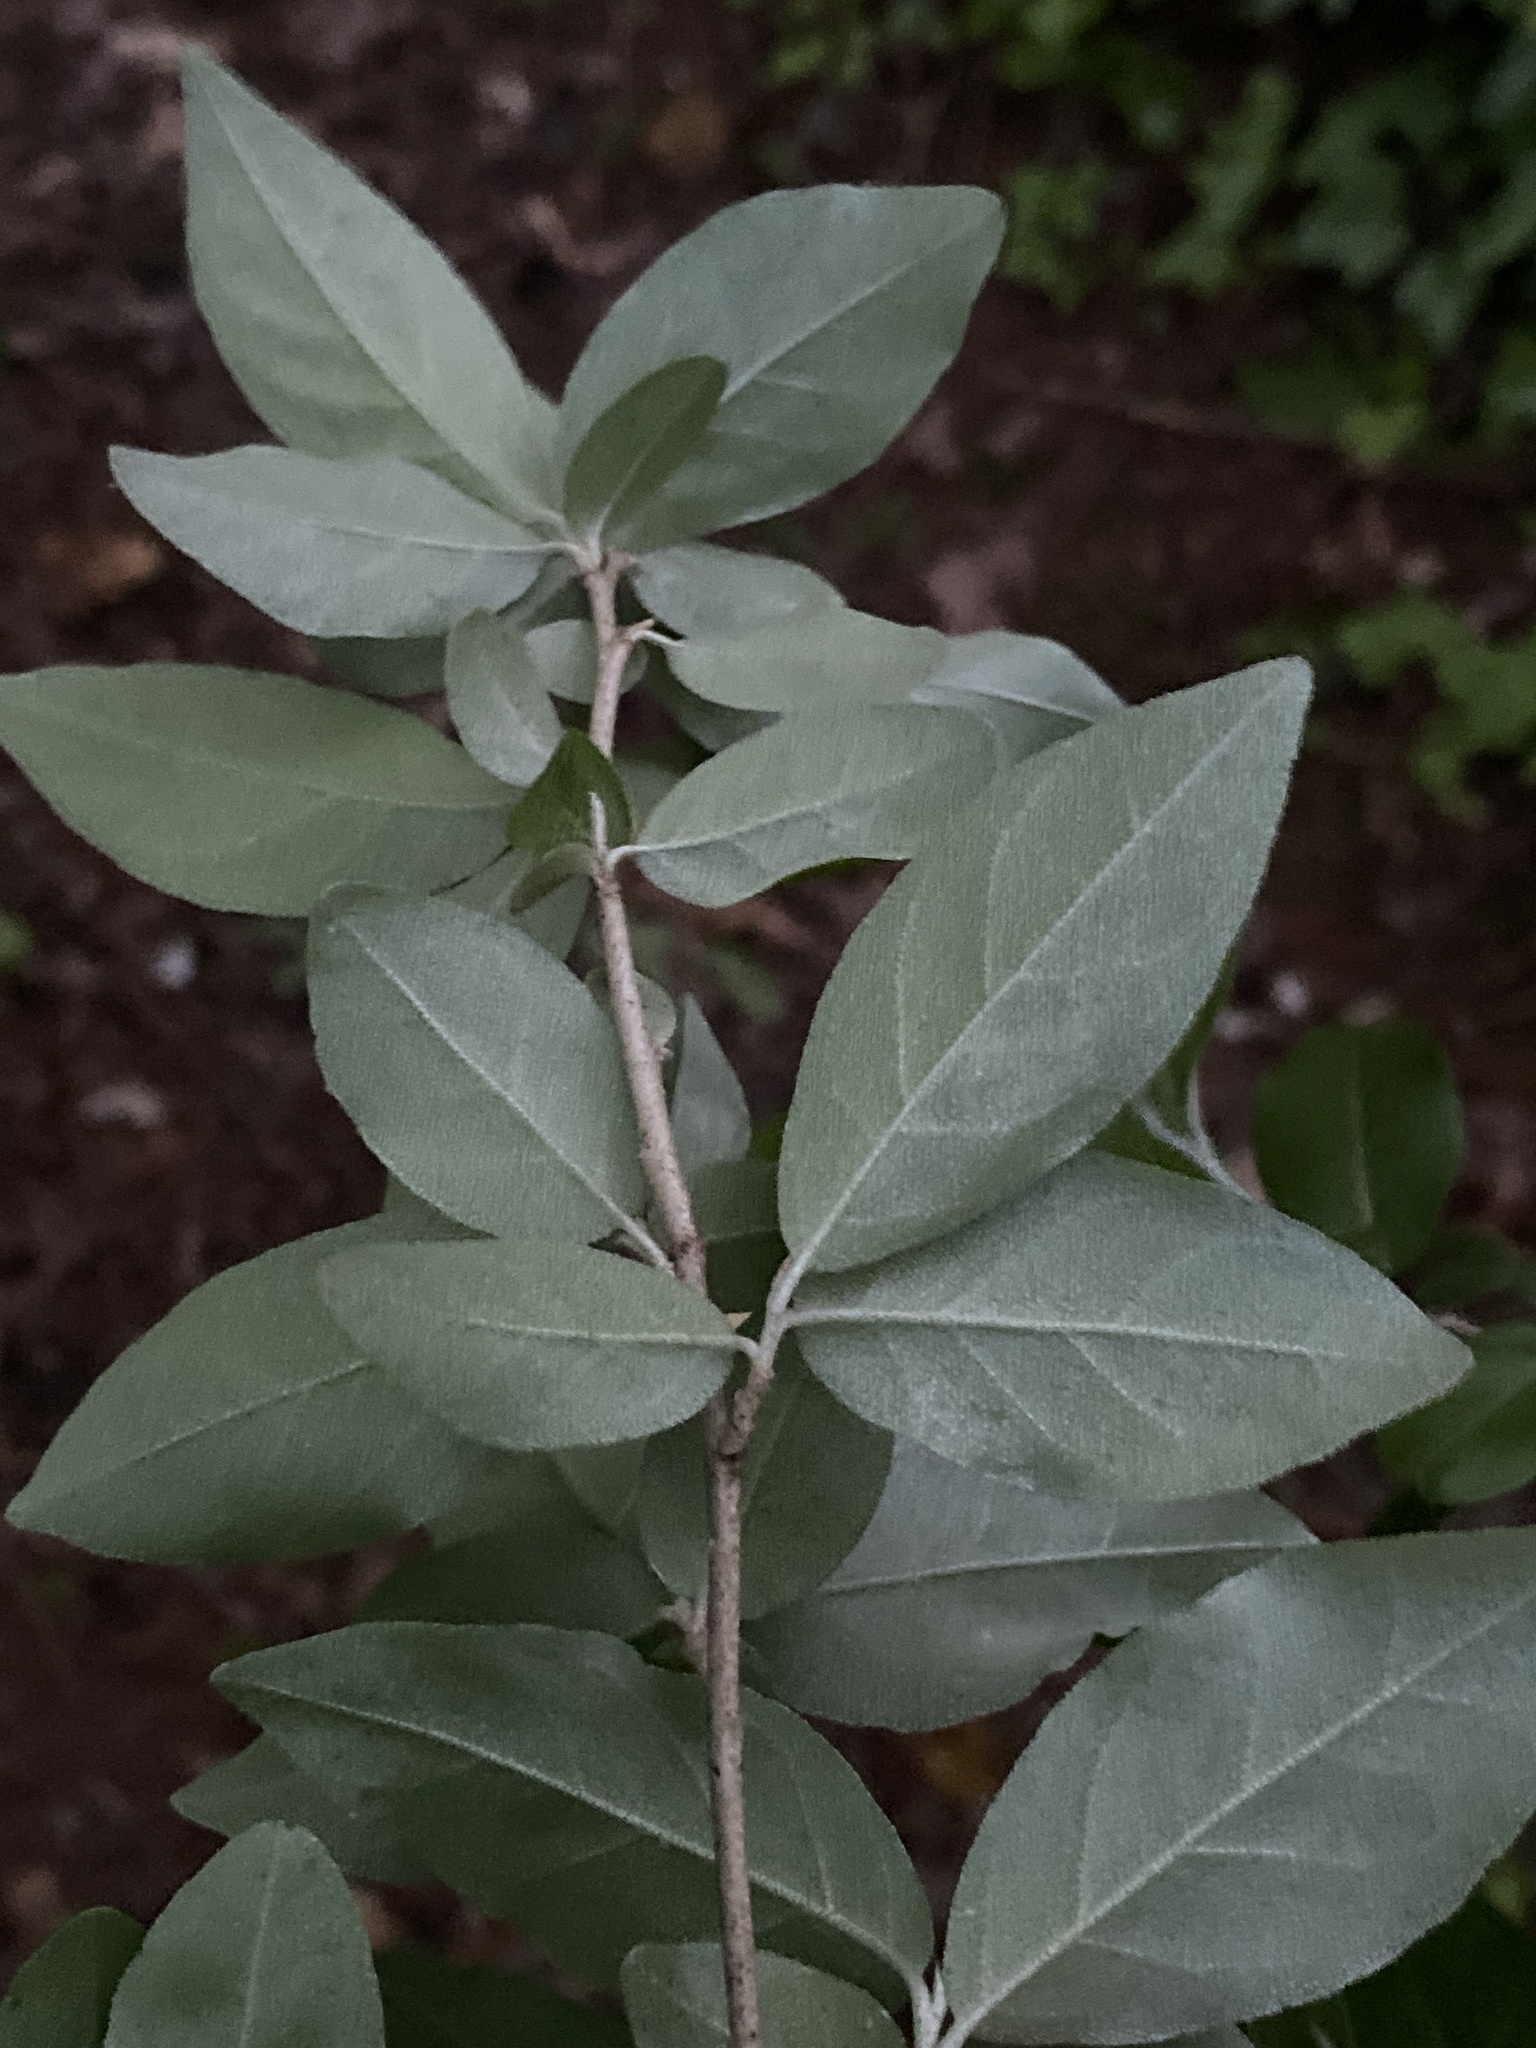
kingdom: Plantae
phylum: Tracheophyta
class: Magnoliopsida
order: Rosales
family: Elaeagnaceae
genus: Elaeagnus
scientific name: Elaeagnus umbellata
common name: Autumn olive
